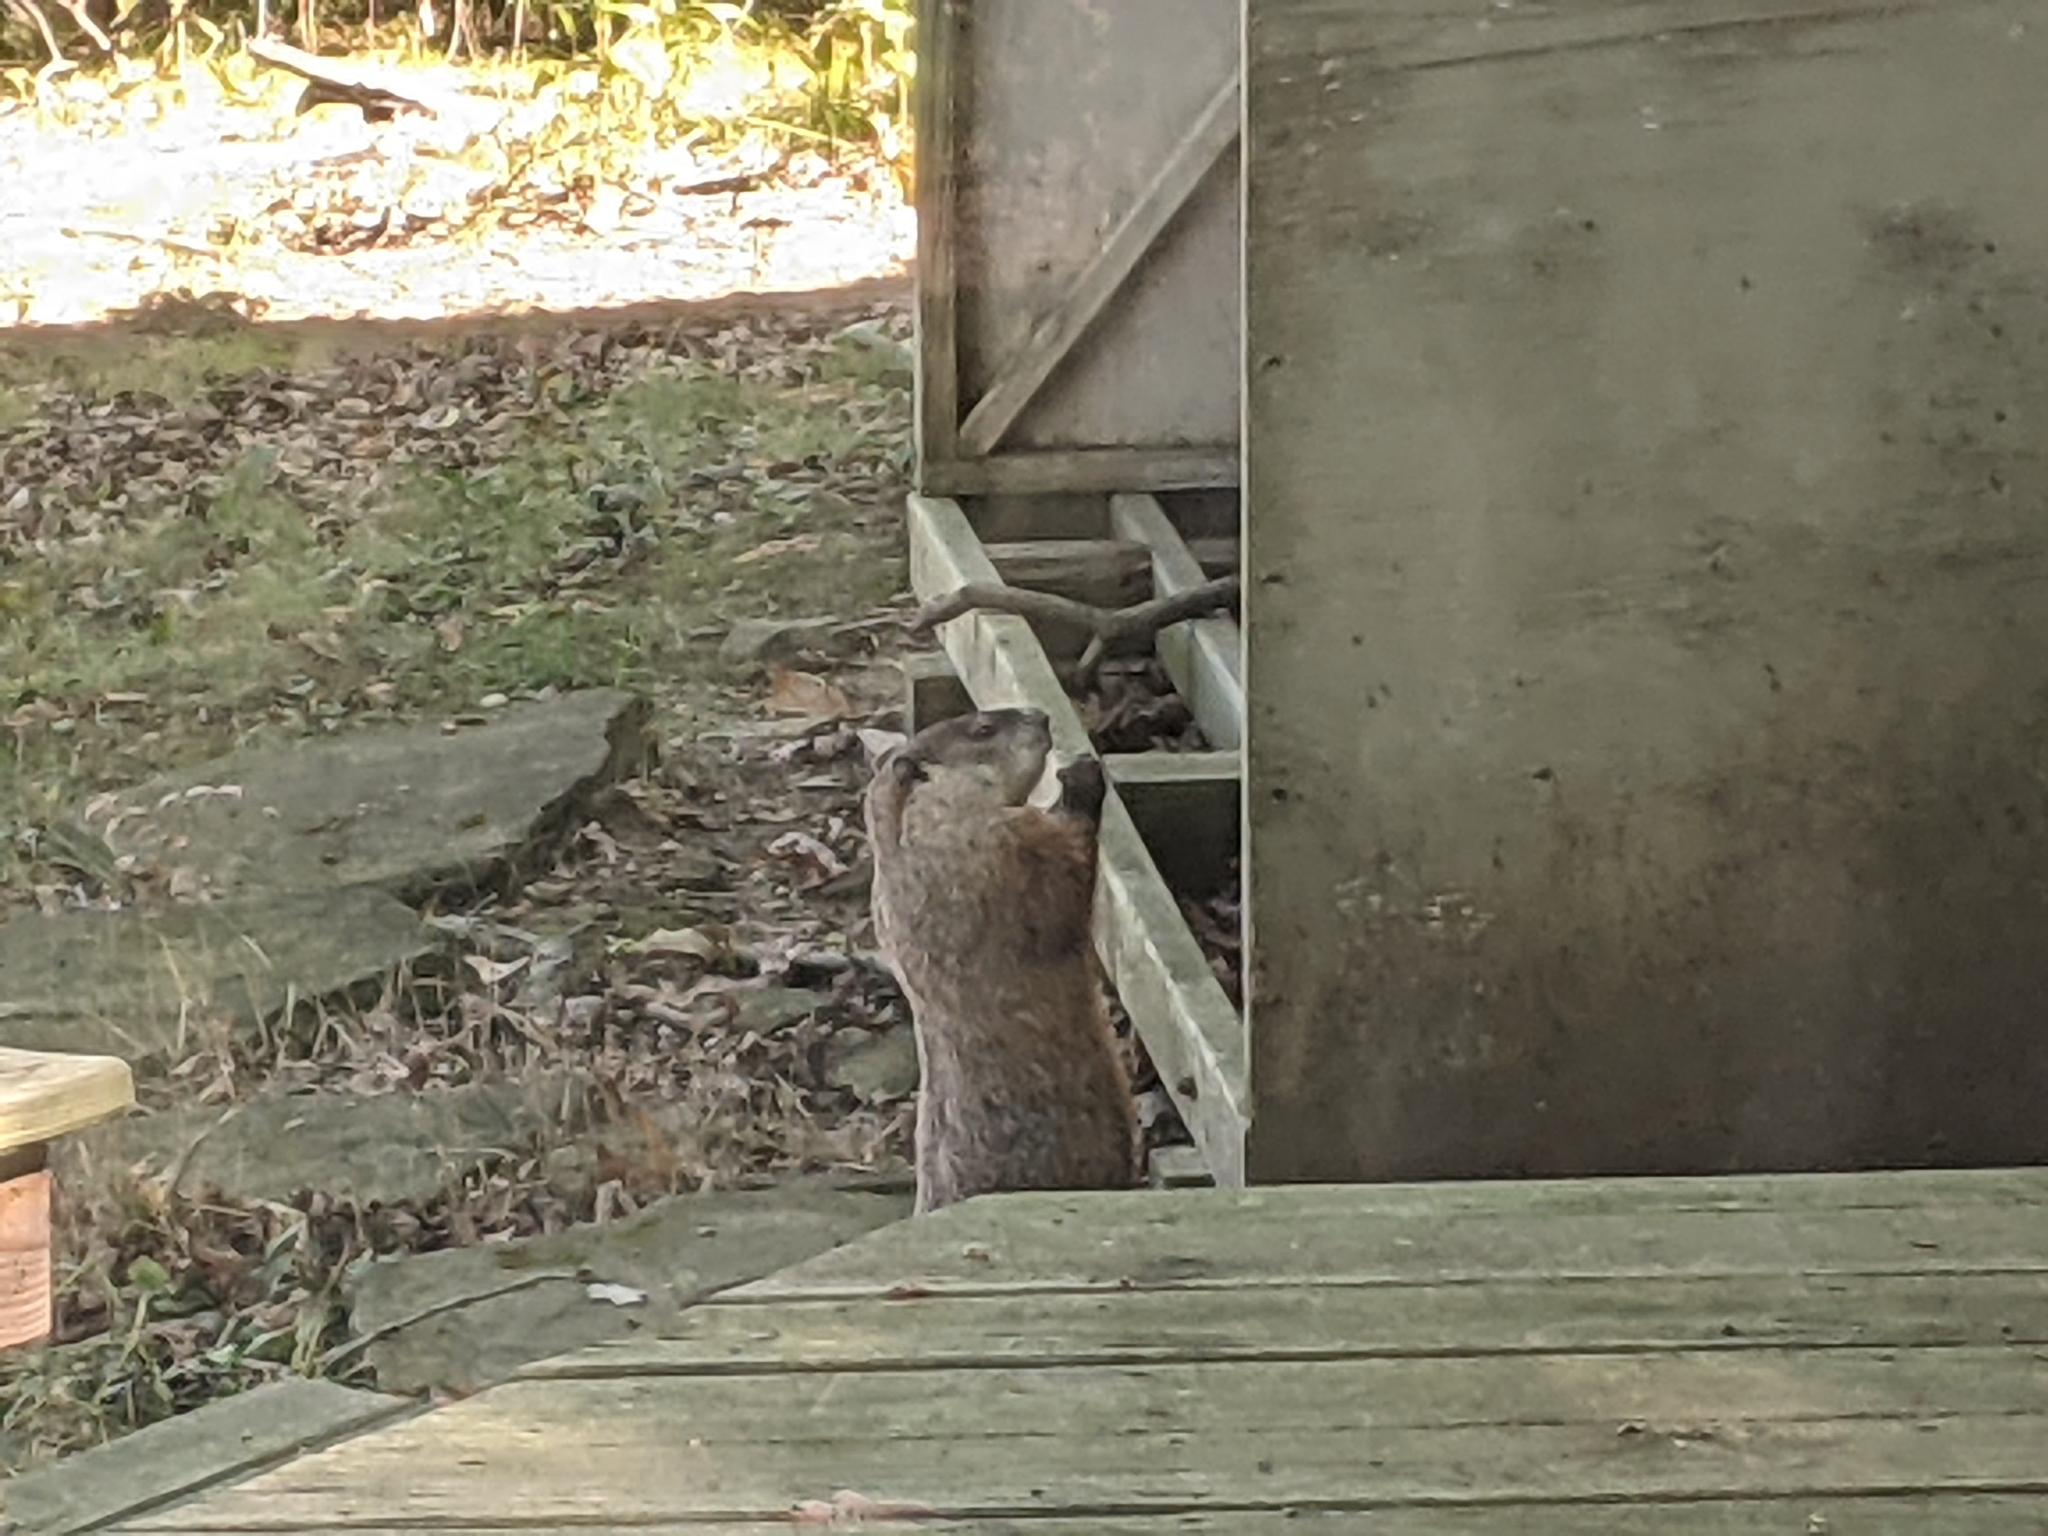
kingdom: Animalia
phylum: Chordata
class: Mammalia
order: Rodentia
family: Sciuridae
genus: Marmota
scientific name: Marmota monax
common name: Groundhog
